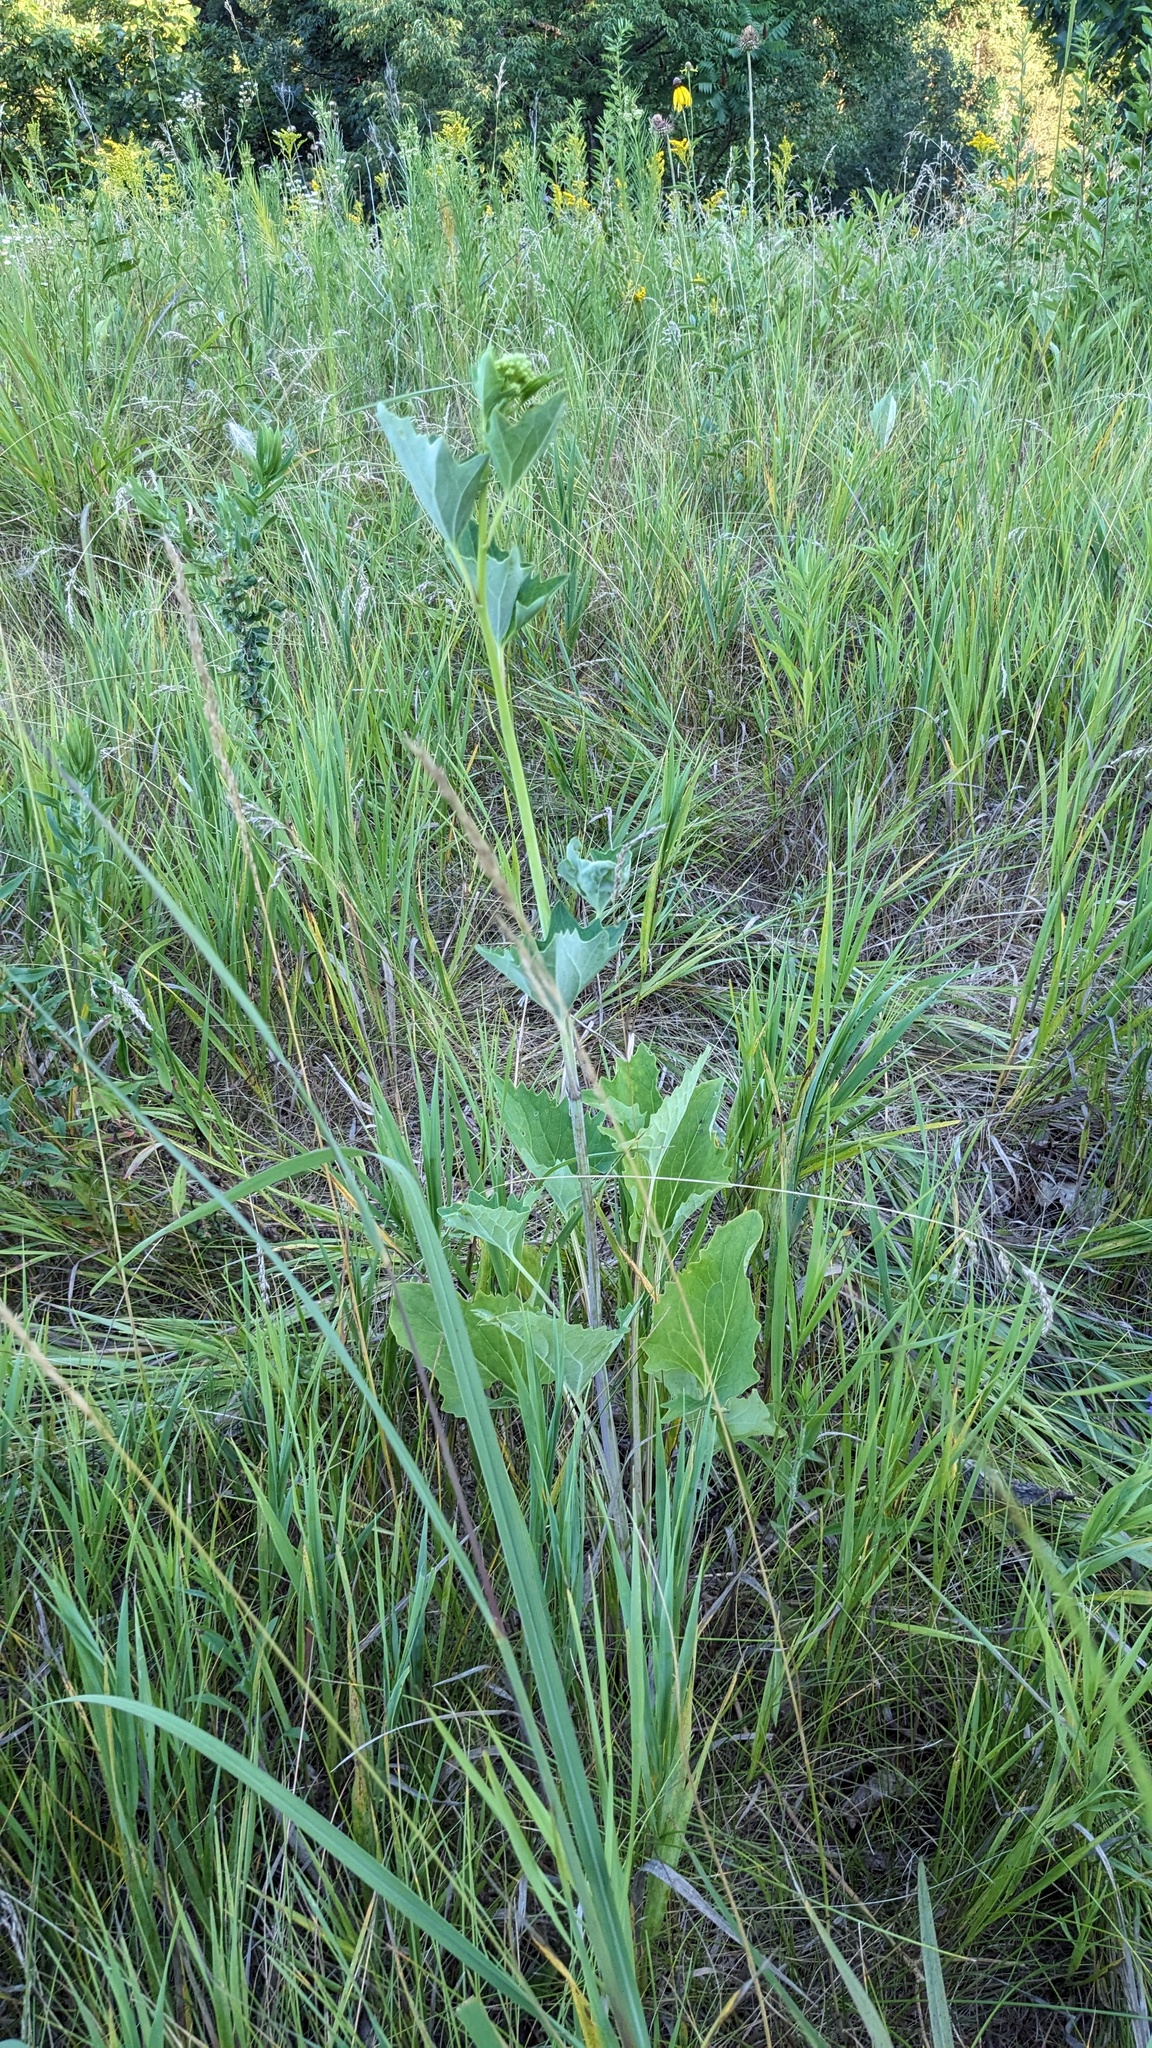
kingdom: Plantae
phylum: Tracheophyta
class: Magnoliopsida
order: Asterales
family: Asteraceae
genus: Arnoglossum
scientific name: Arnoglossum atriplicifolium
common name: Pale indian-plantain
